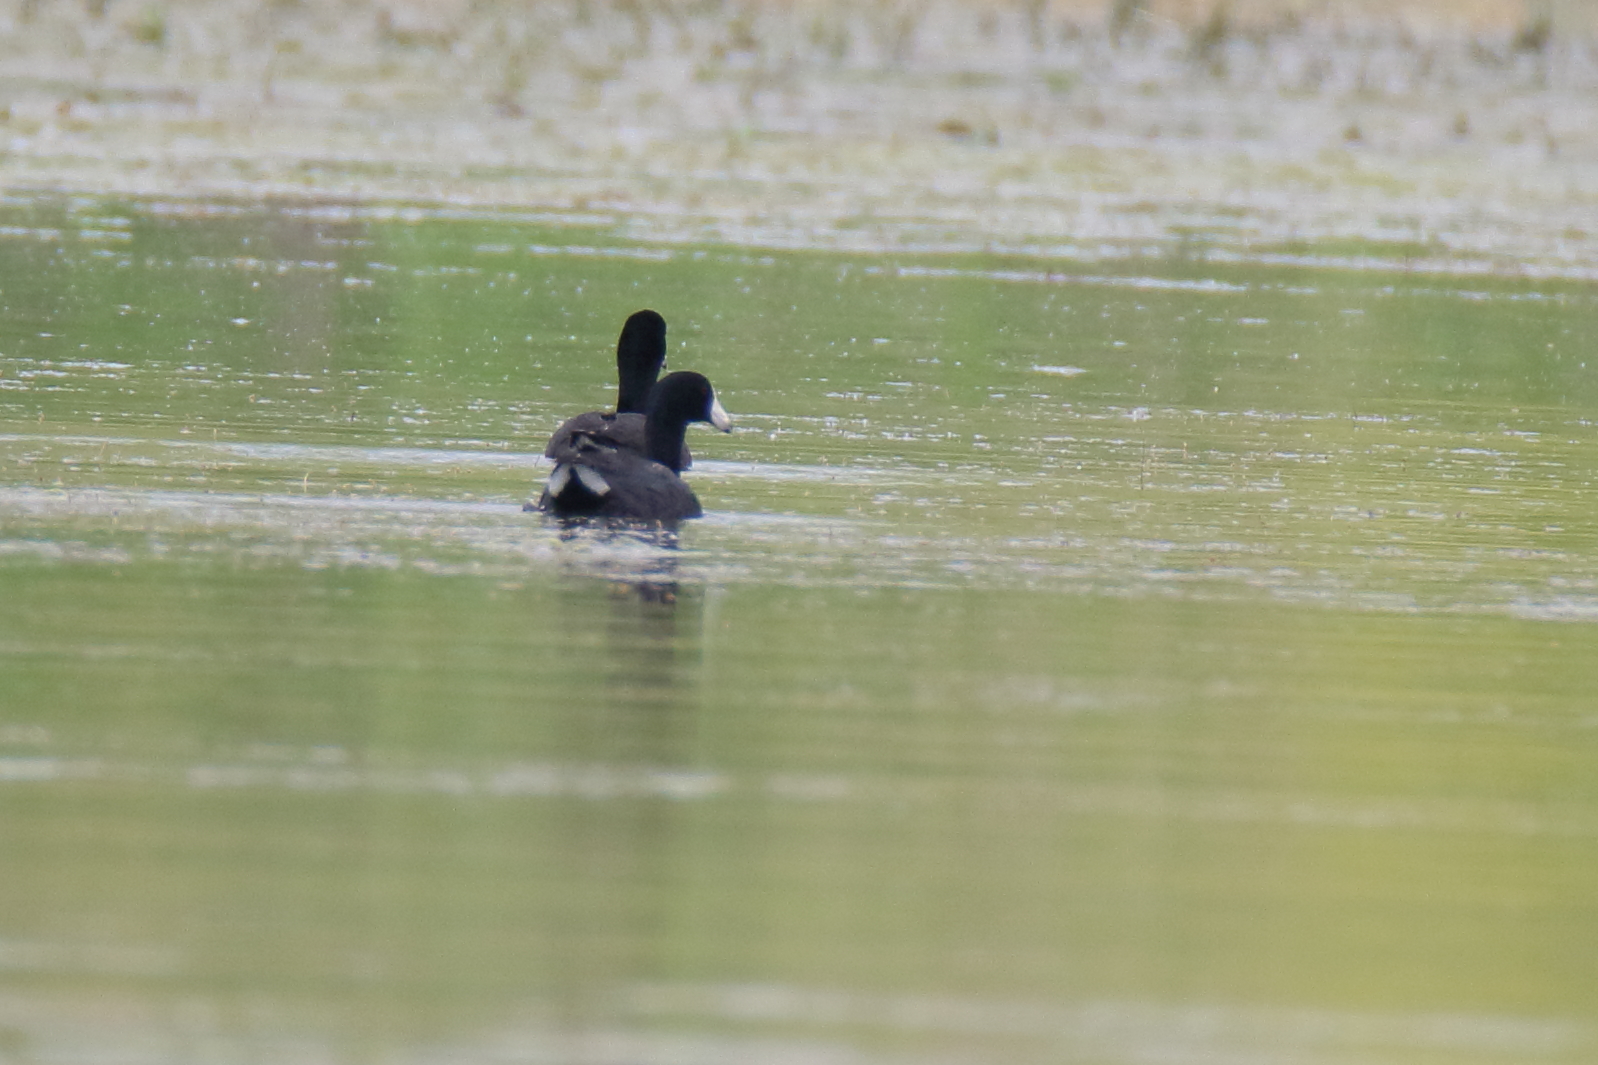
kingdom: Animalia
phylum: Chordata
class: Aves
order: Gruiformes
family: Rallidae
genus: Fulica
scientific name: Fulica americana
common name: American coot
